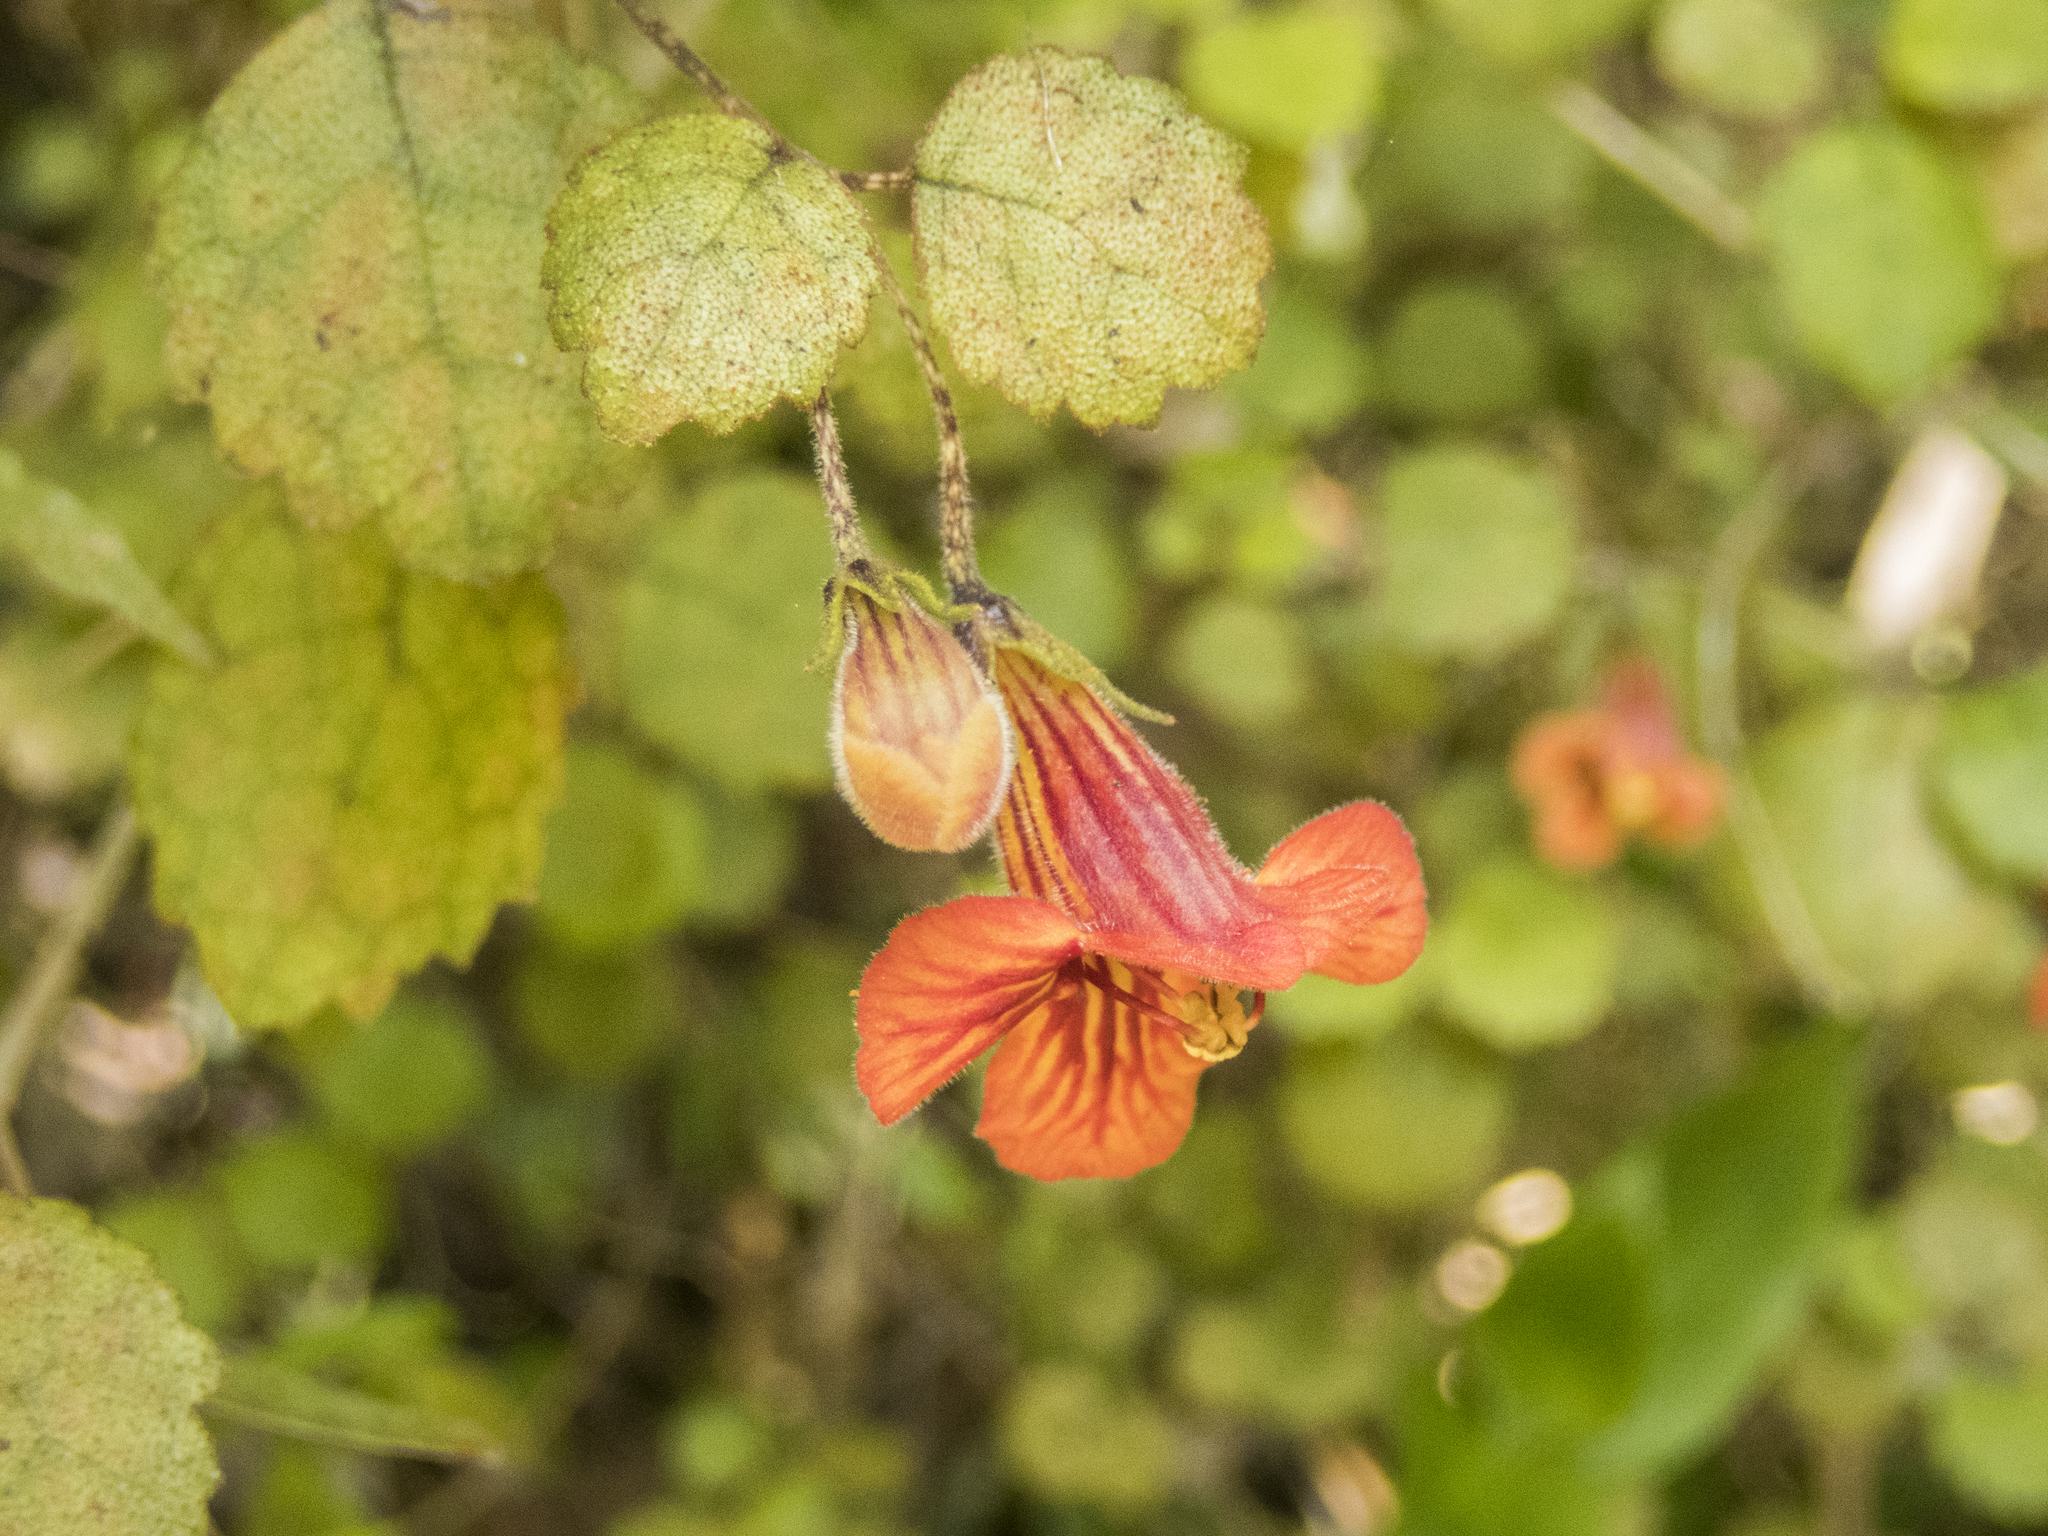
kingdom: Plantae
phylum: Tracheophyta
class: Magnoliopsida
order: Lamiales
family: Gesneriaceae
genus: Rhabdothamnus
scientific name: Rhabdothamnus solandri
